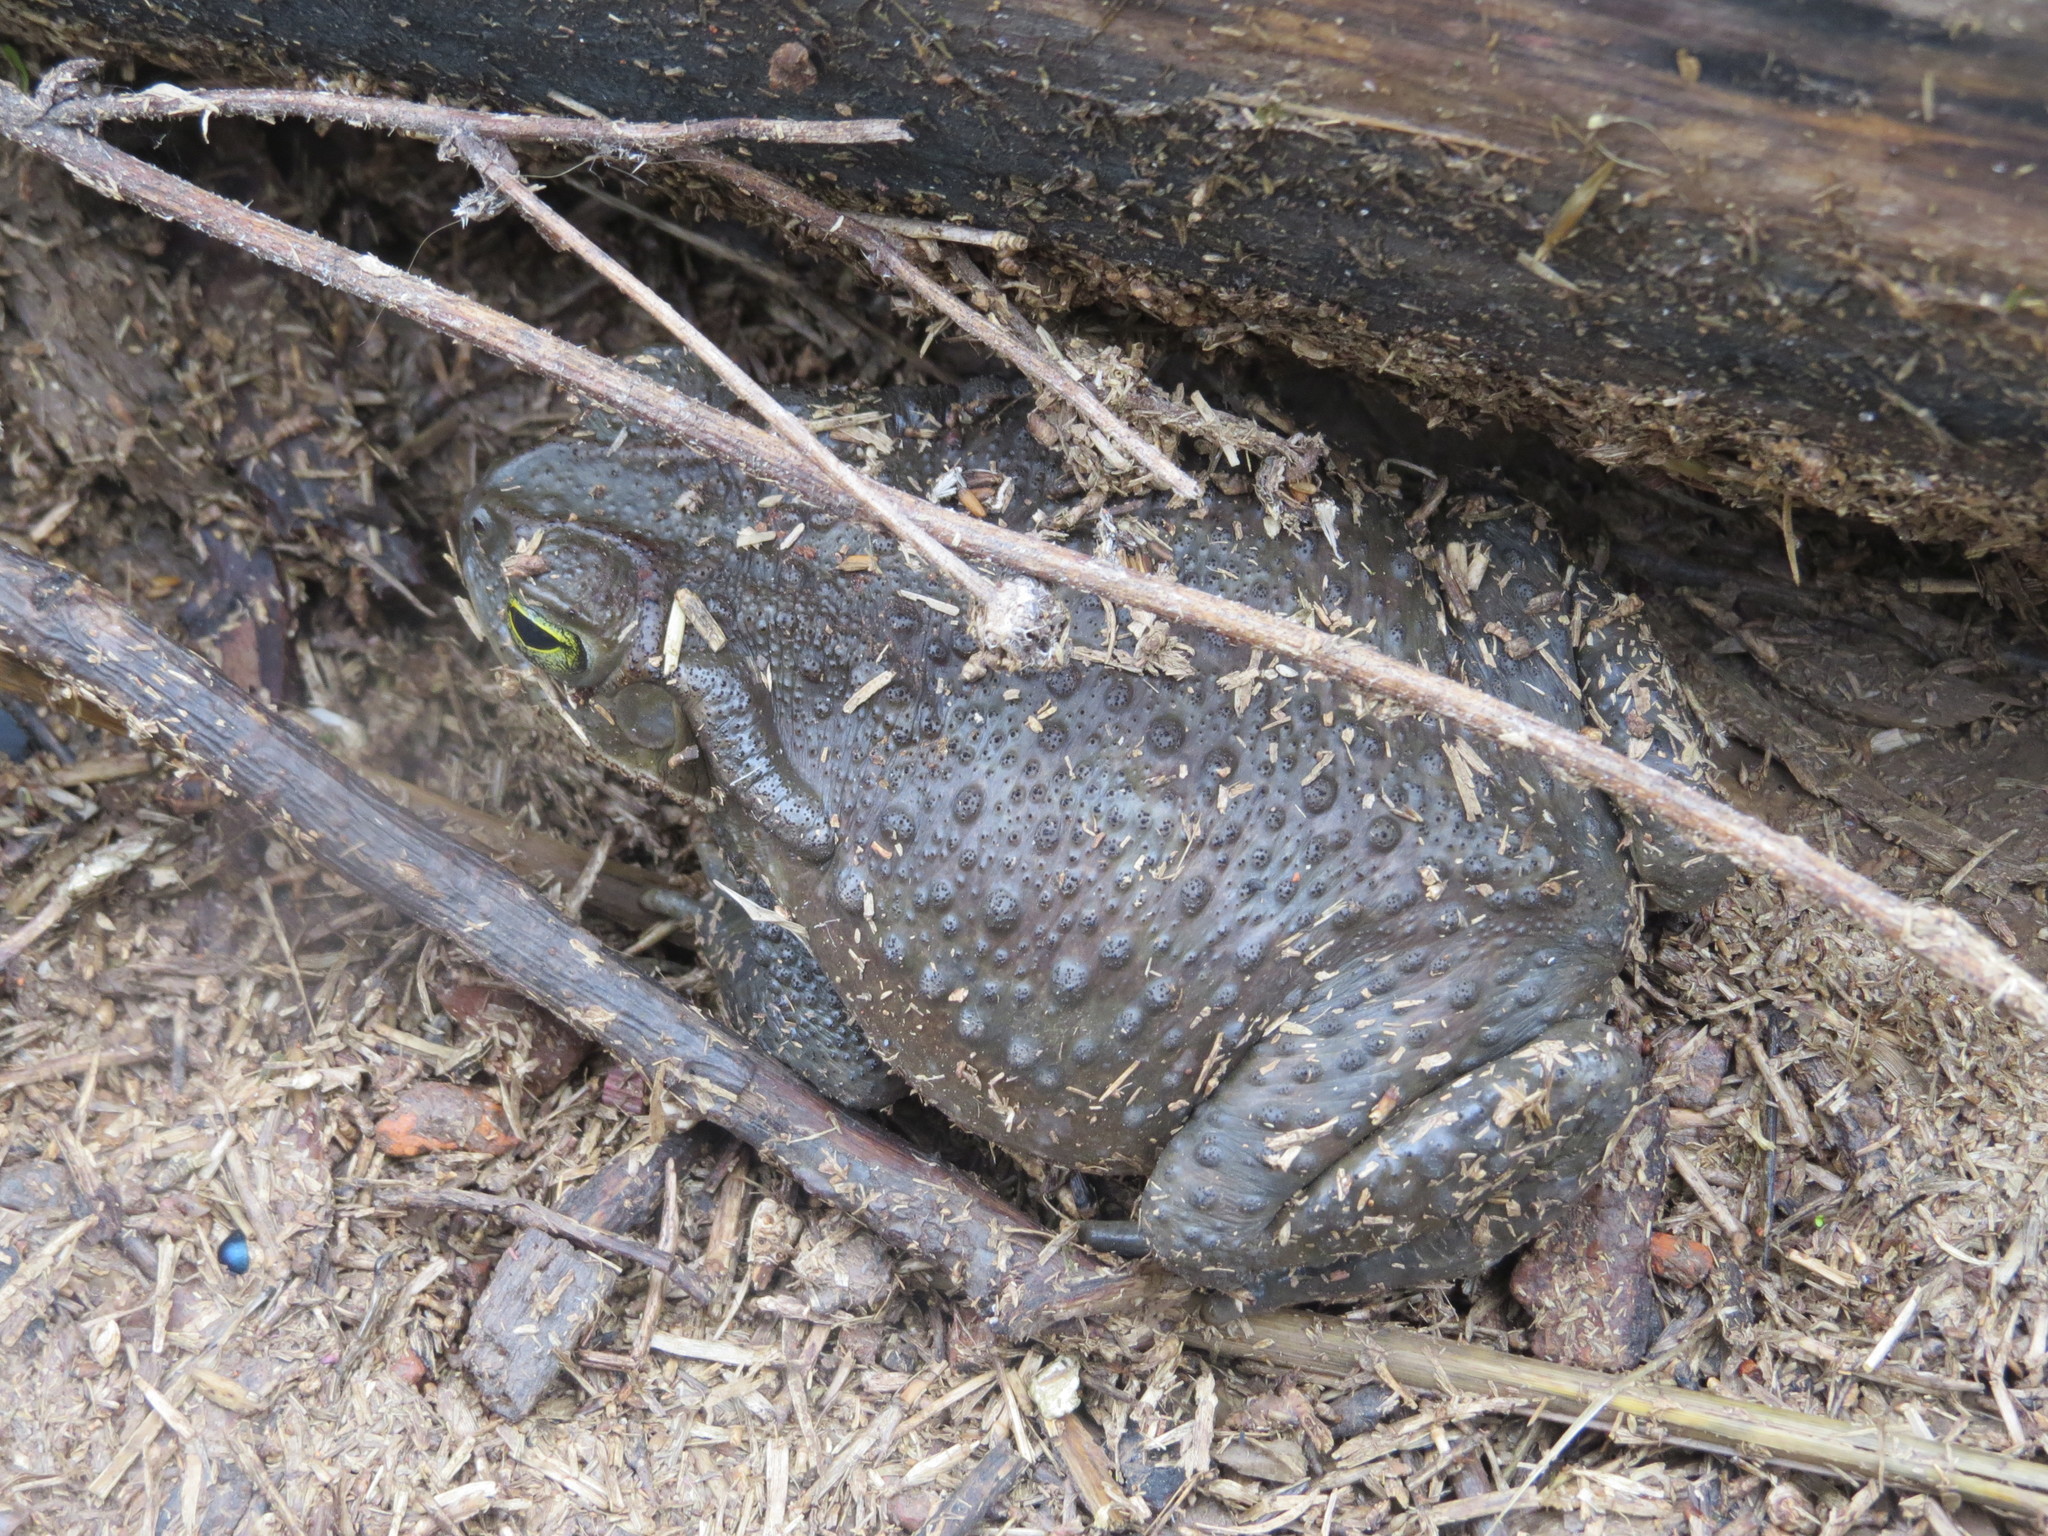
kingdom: Animalia
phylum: Chordata
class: Amphibia
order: Anura
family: Bufonidae
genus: Rhinella
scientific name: Rhinella arenarum
